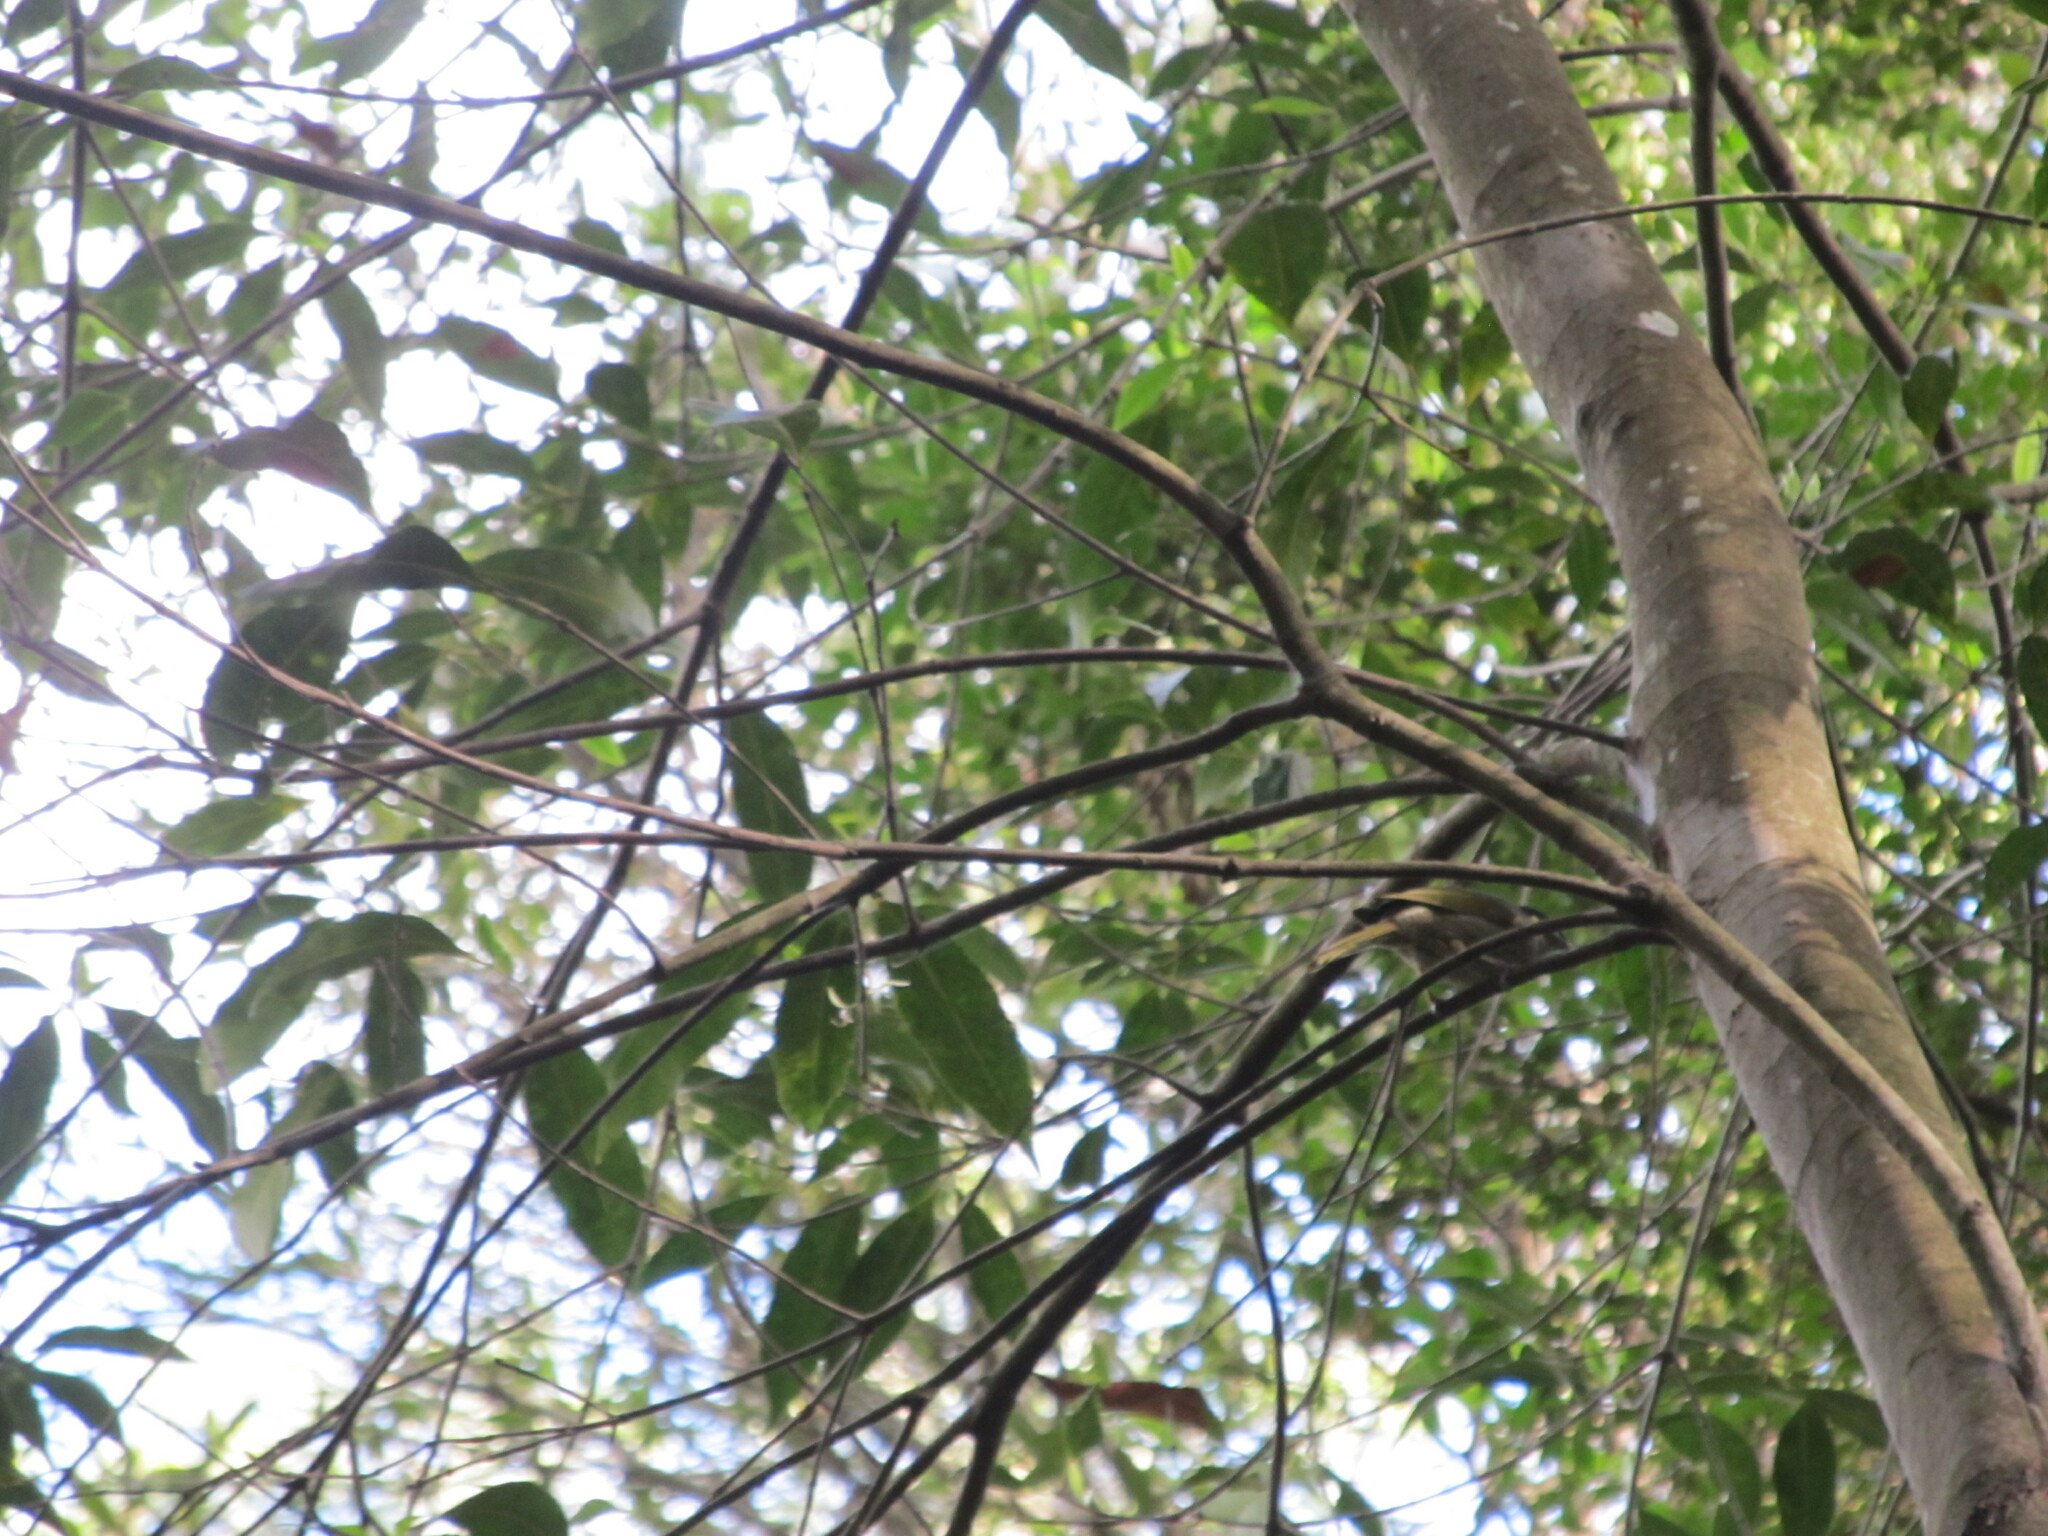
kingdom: Animalia
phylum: Chordata
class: Aves
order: Passeriformes
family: Meliphagidae
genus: Meliphaga
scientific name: Meliphaga lewinii
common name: Lewin's honeyeater
